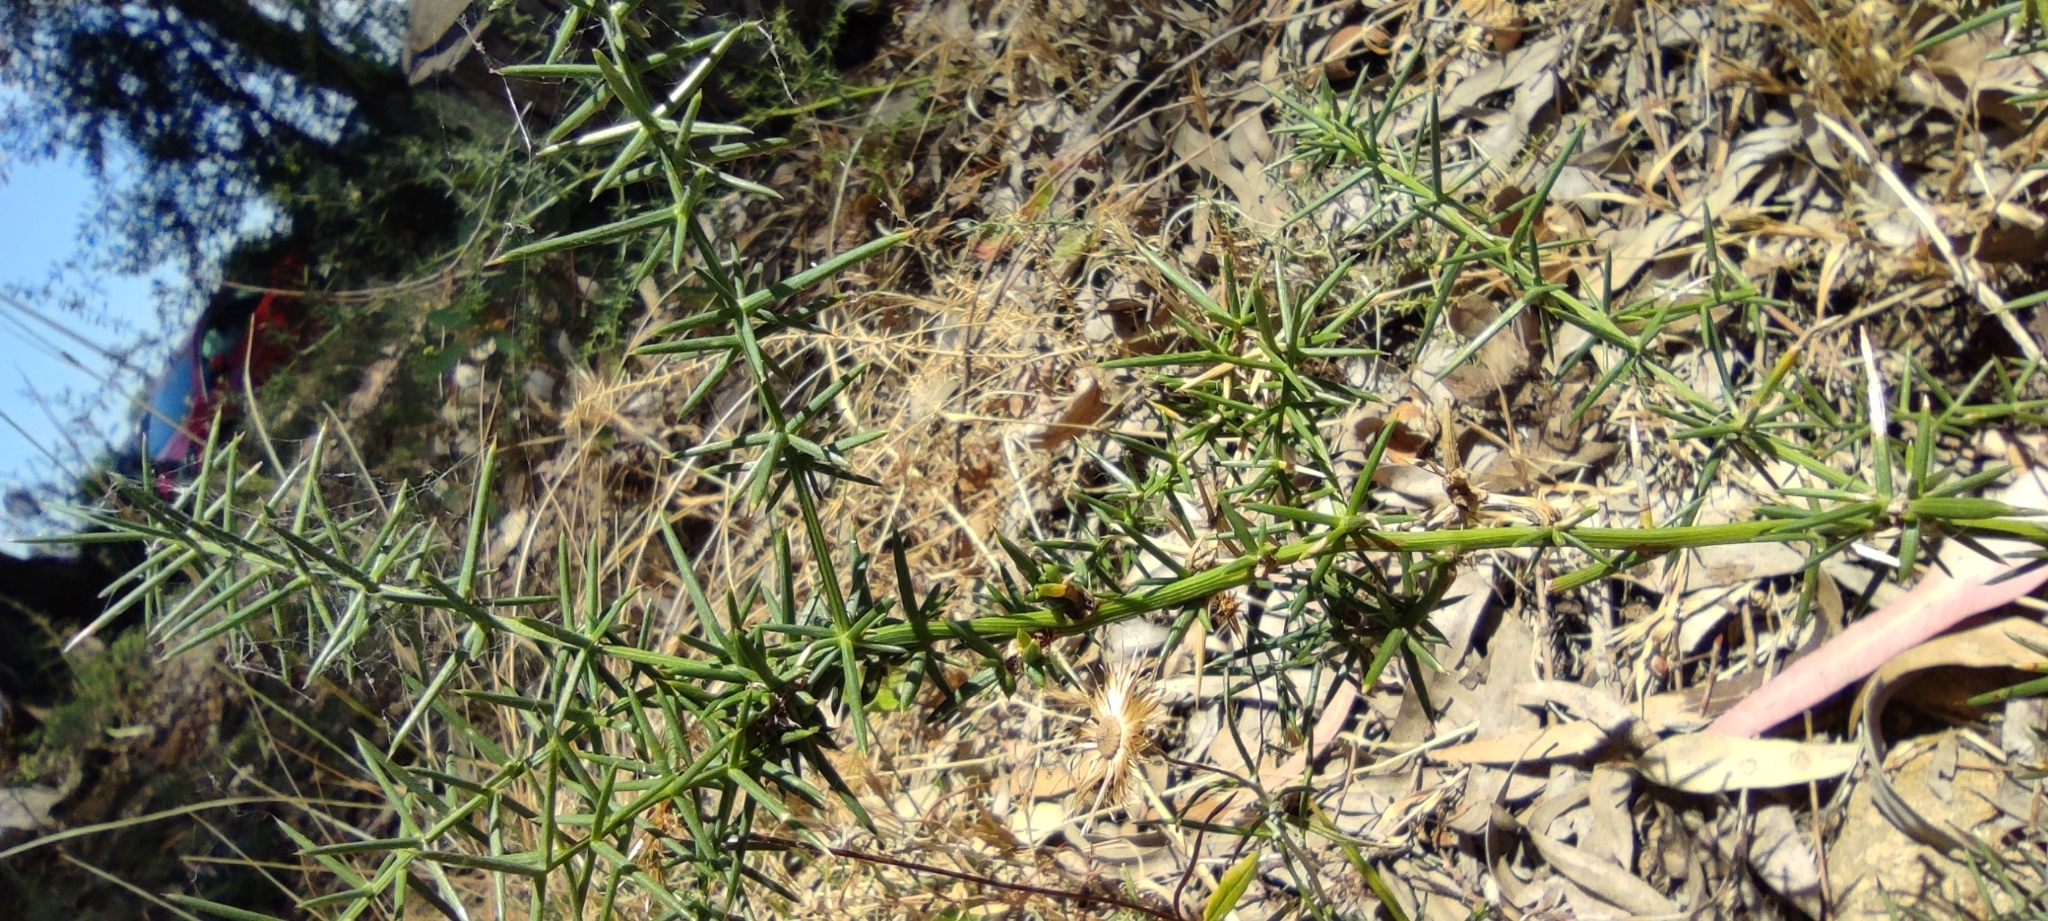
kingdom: Plantae
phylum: Tracheophyta
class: Liliopsida
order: Asparagales
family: Asparagaceae
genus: Asparagus
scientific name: Asparagus aphyllus
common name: Mediterranean asparagus
